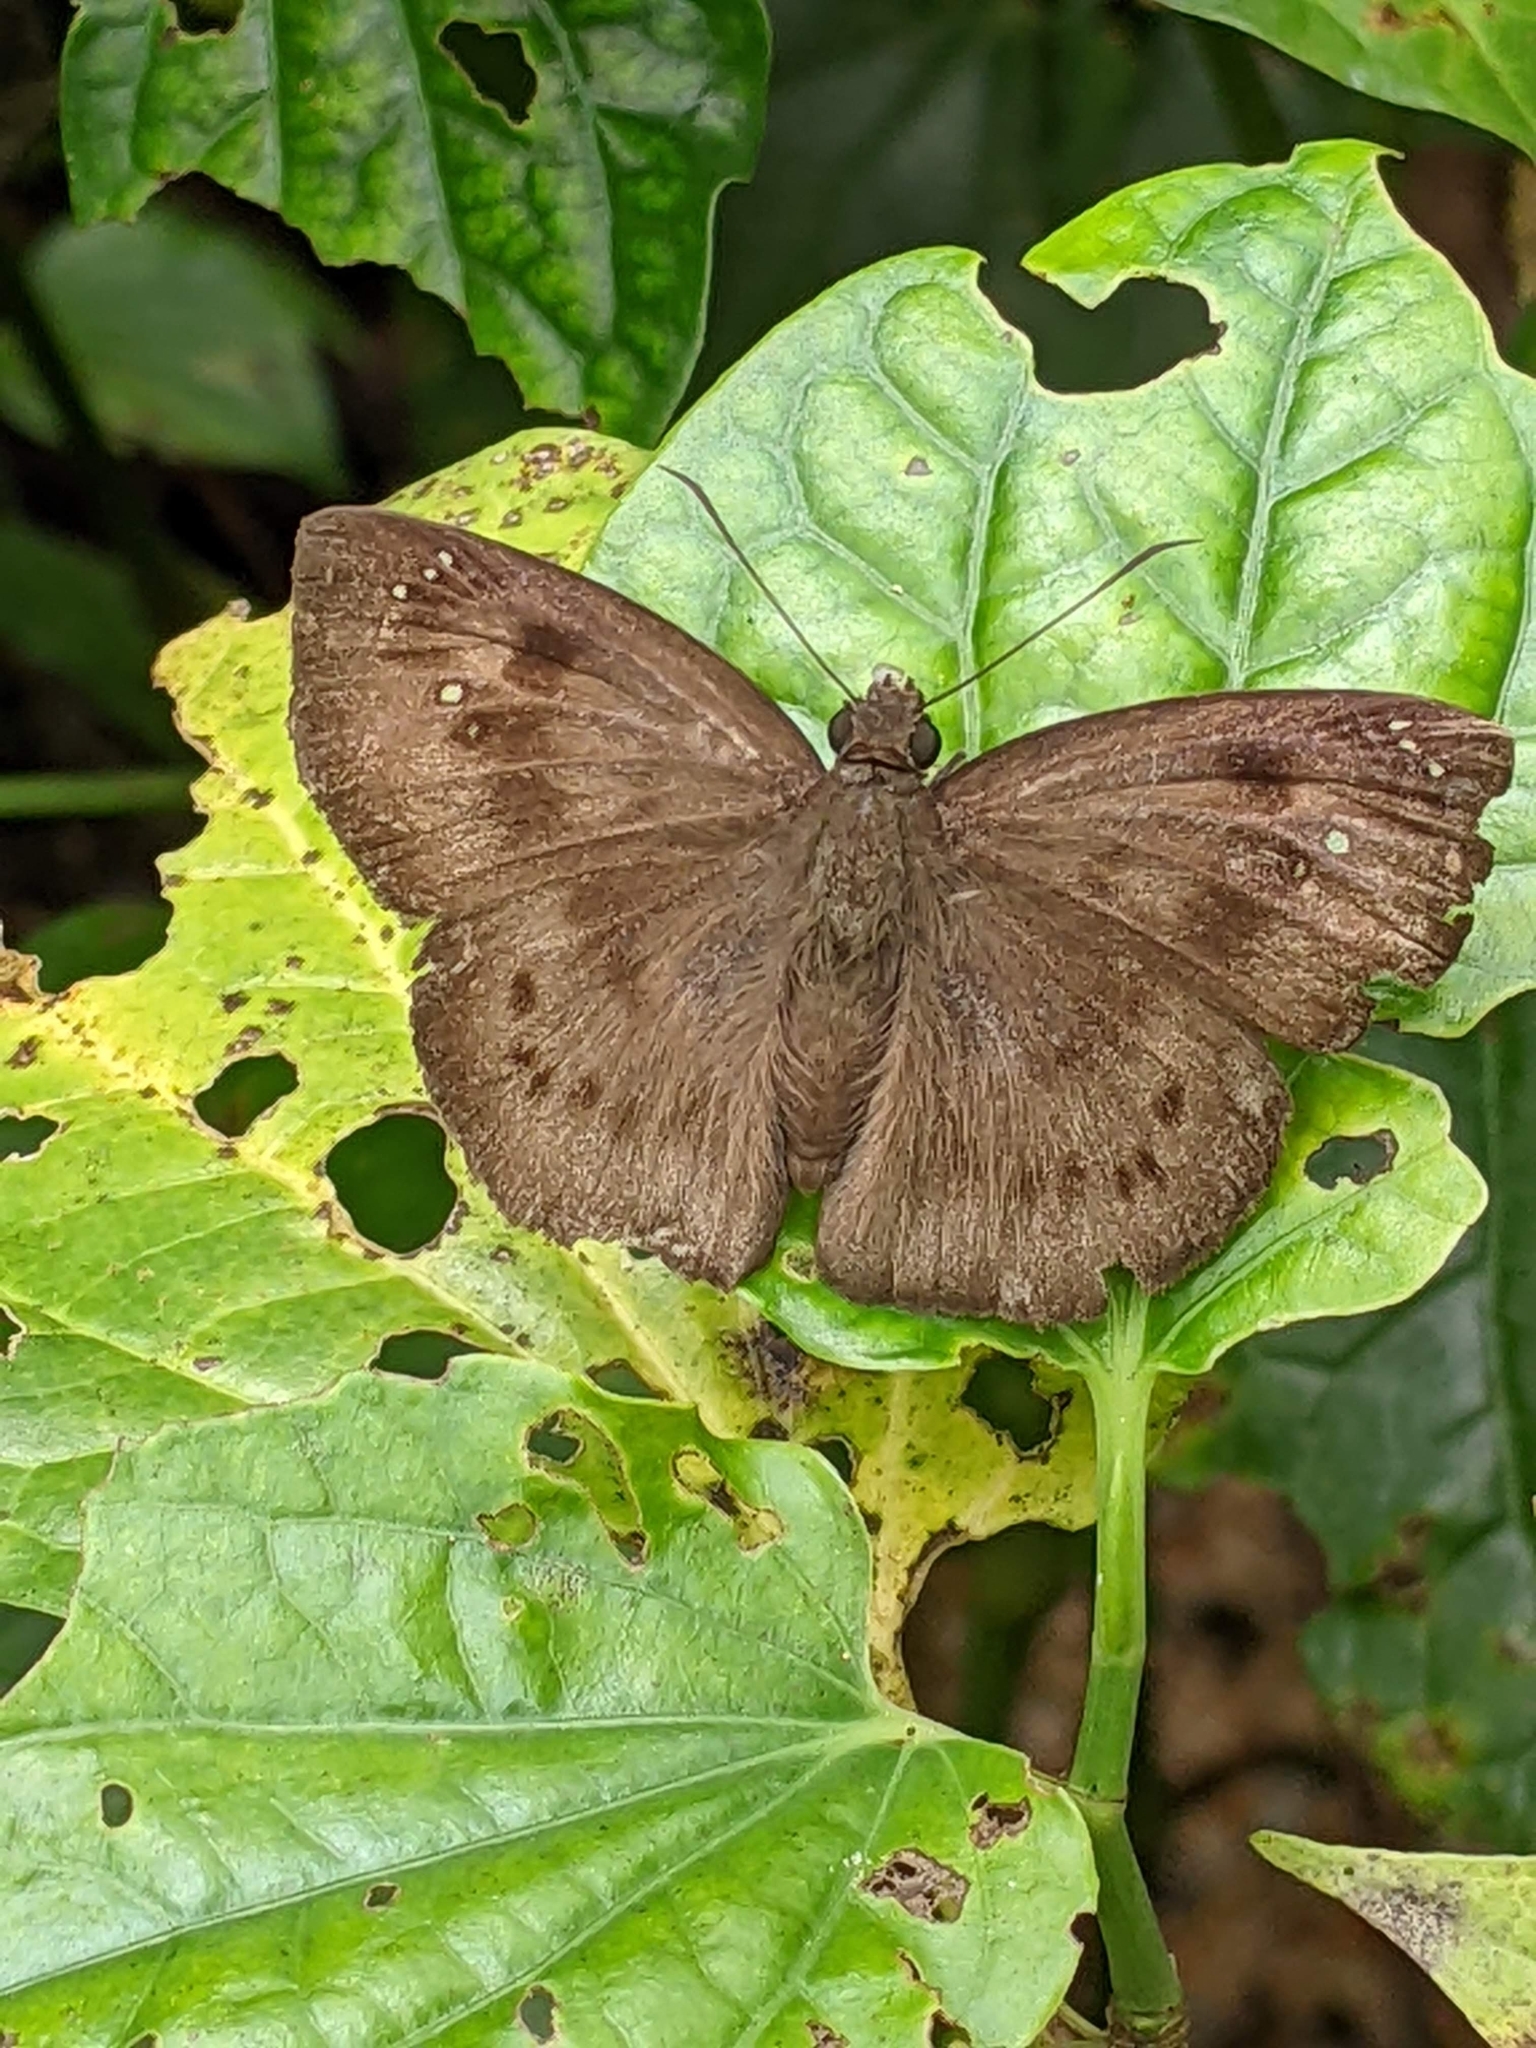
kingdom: Animalia
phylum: Arthropoda
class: Insecta
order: Lepidoptera
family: Hesperiidae
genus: Tagiades
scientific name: Tagiades japetus
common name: Pied flat
